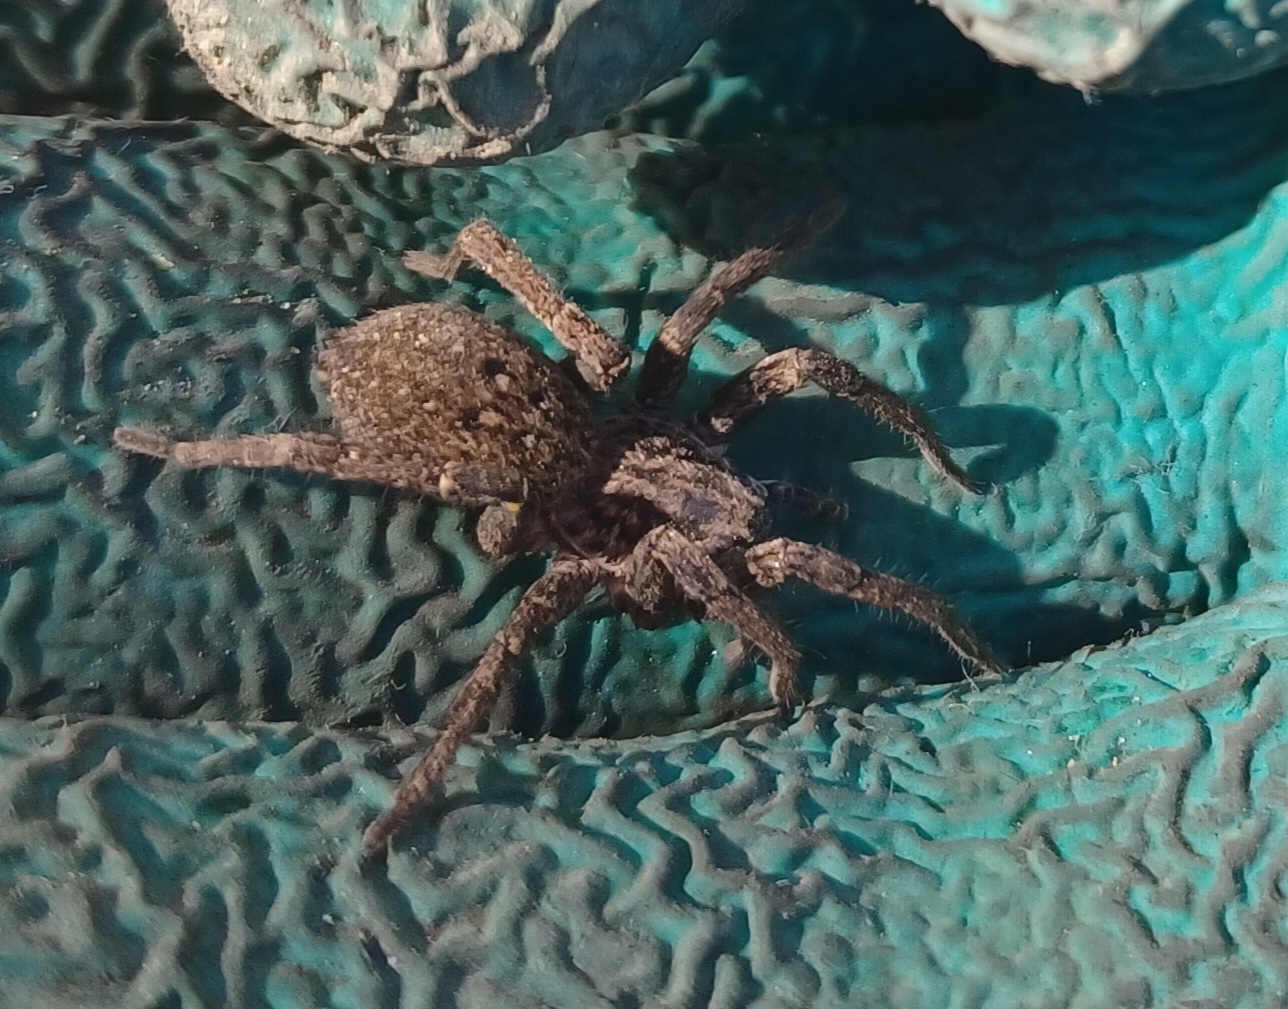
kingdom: Animalia
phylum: Arthropoda
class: Arachnida
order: Araneae
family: Miturgidae
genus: Mituliodon
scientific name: Mituliodon tarantulinus
